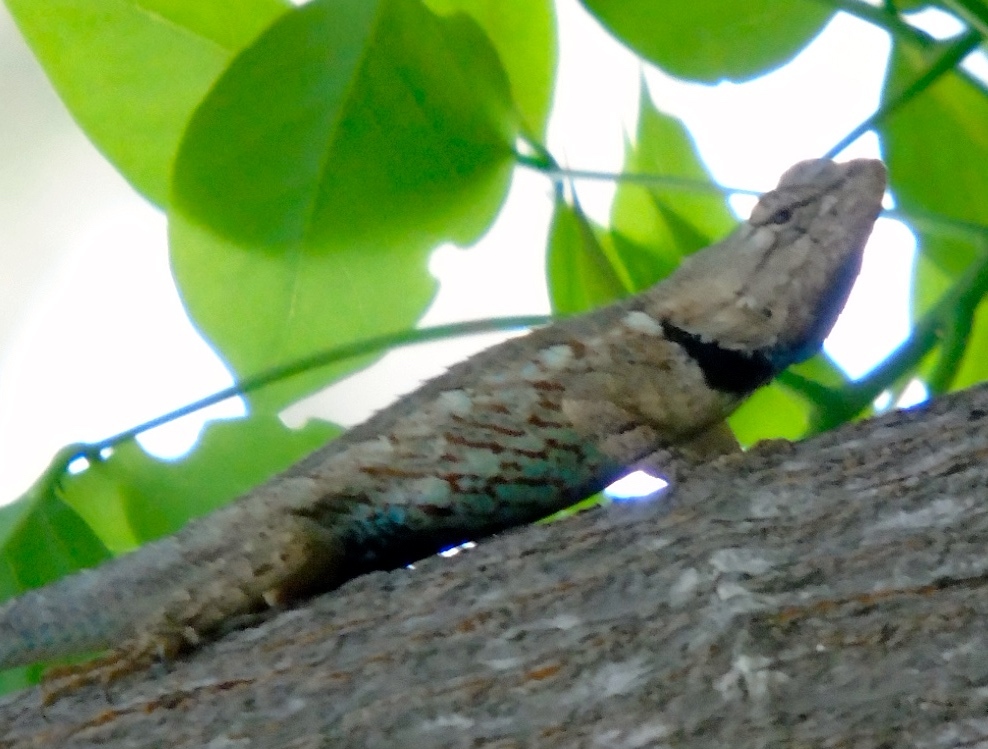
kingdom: Animalia
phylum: Chordata
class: Squamata
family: Phrynosomatidae
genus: Sceloporus
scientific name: Sceloporus clarkii
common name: Clark's spiny lizard
